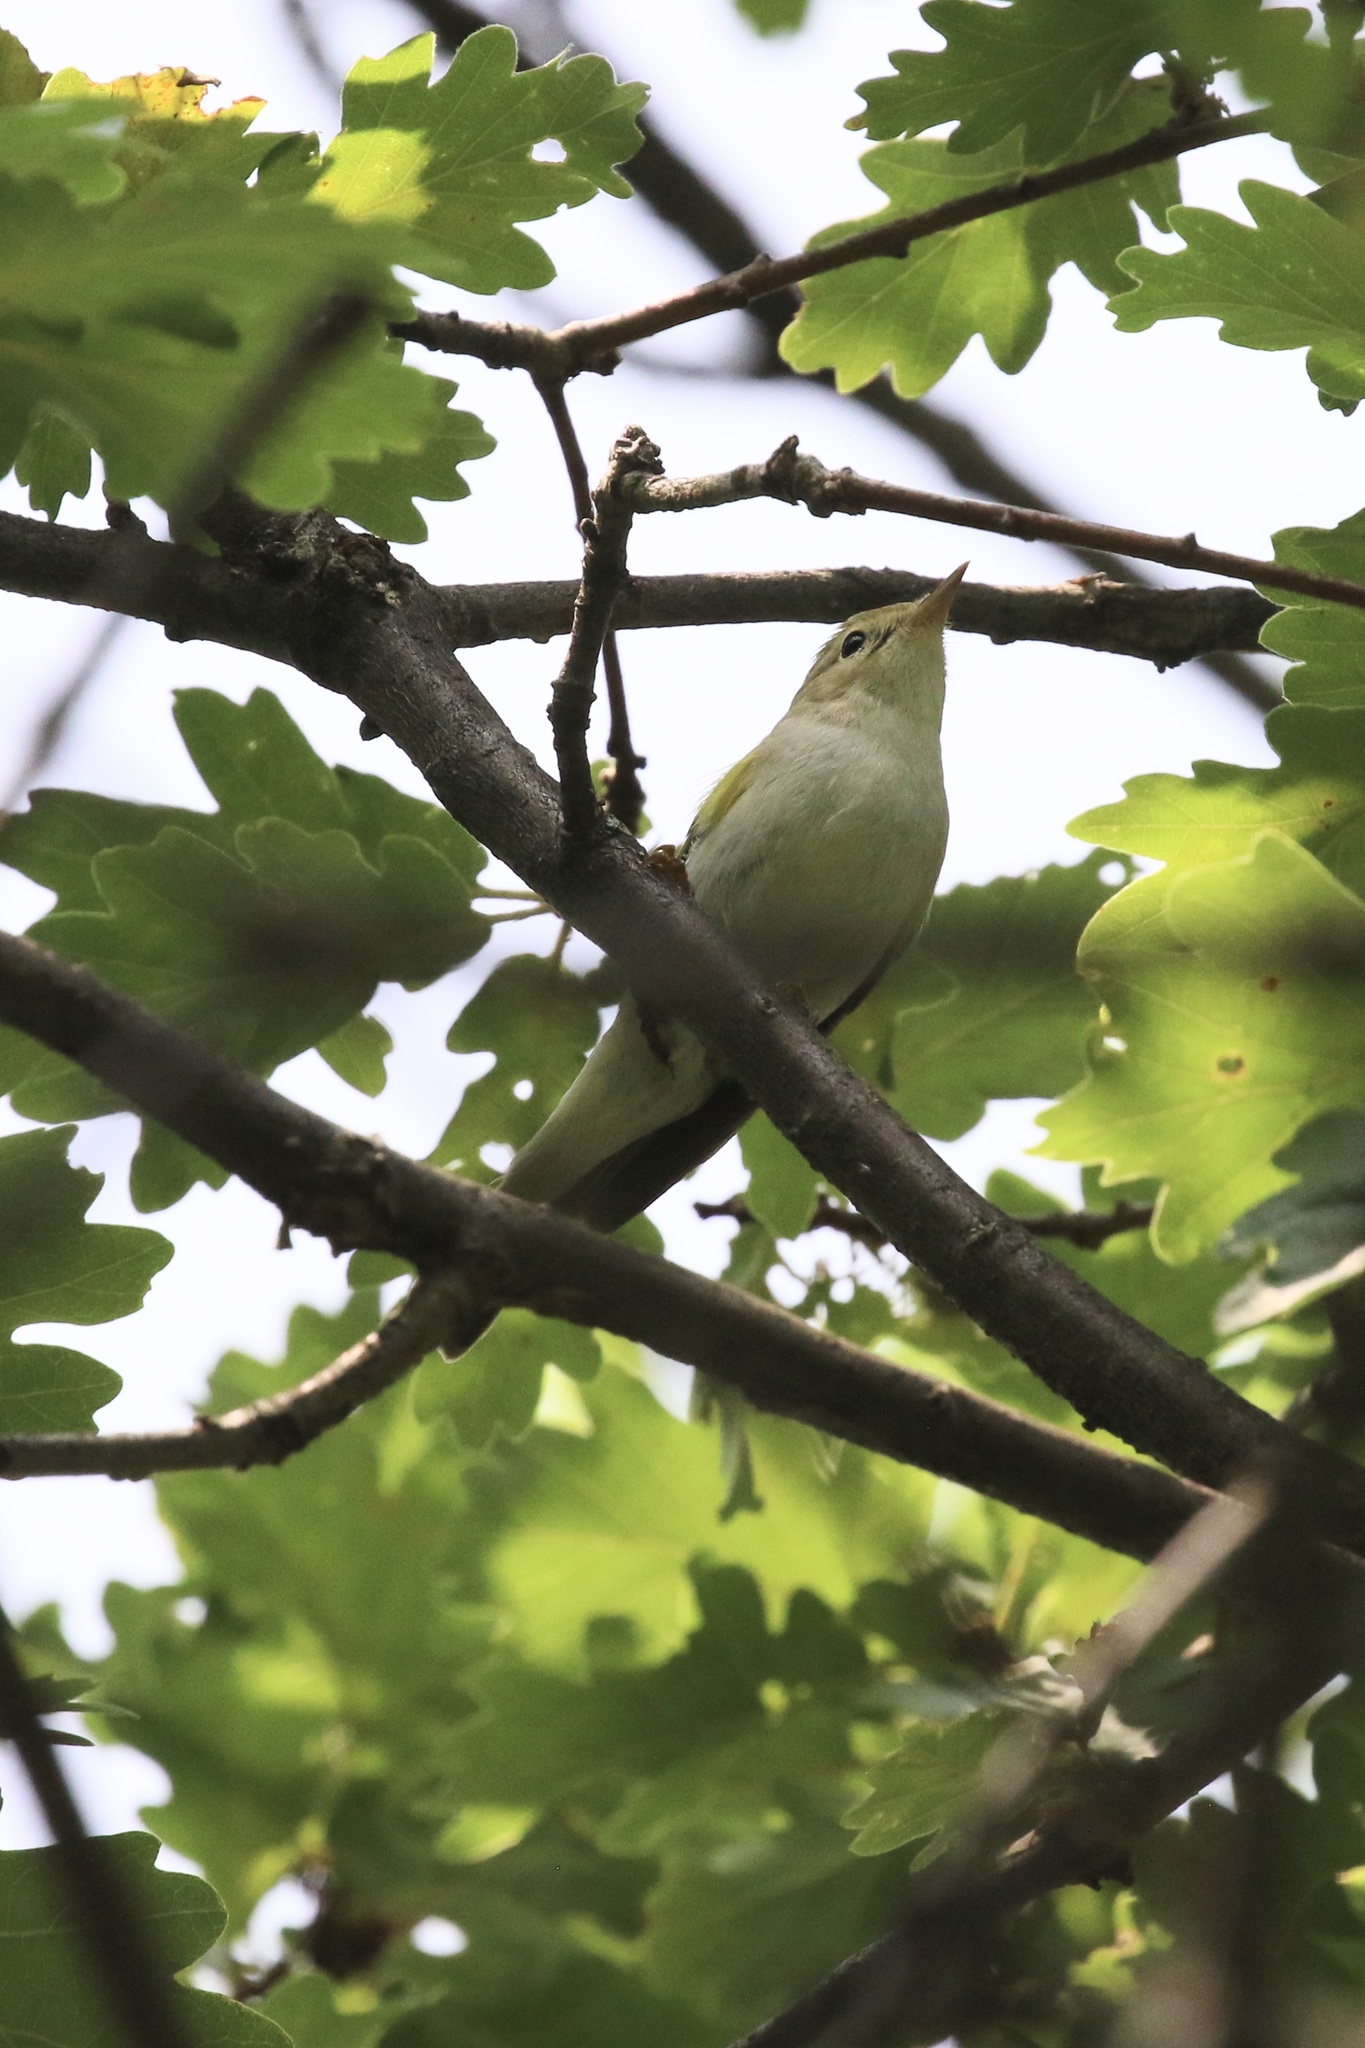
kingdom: Animalia
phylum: Chordata
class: Aves
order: Passeriformes
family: Phylloscopidae
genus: Phylloscopus
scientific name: Phylloscopus bonelli
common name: Western bonelli's warbler
